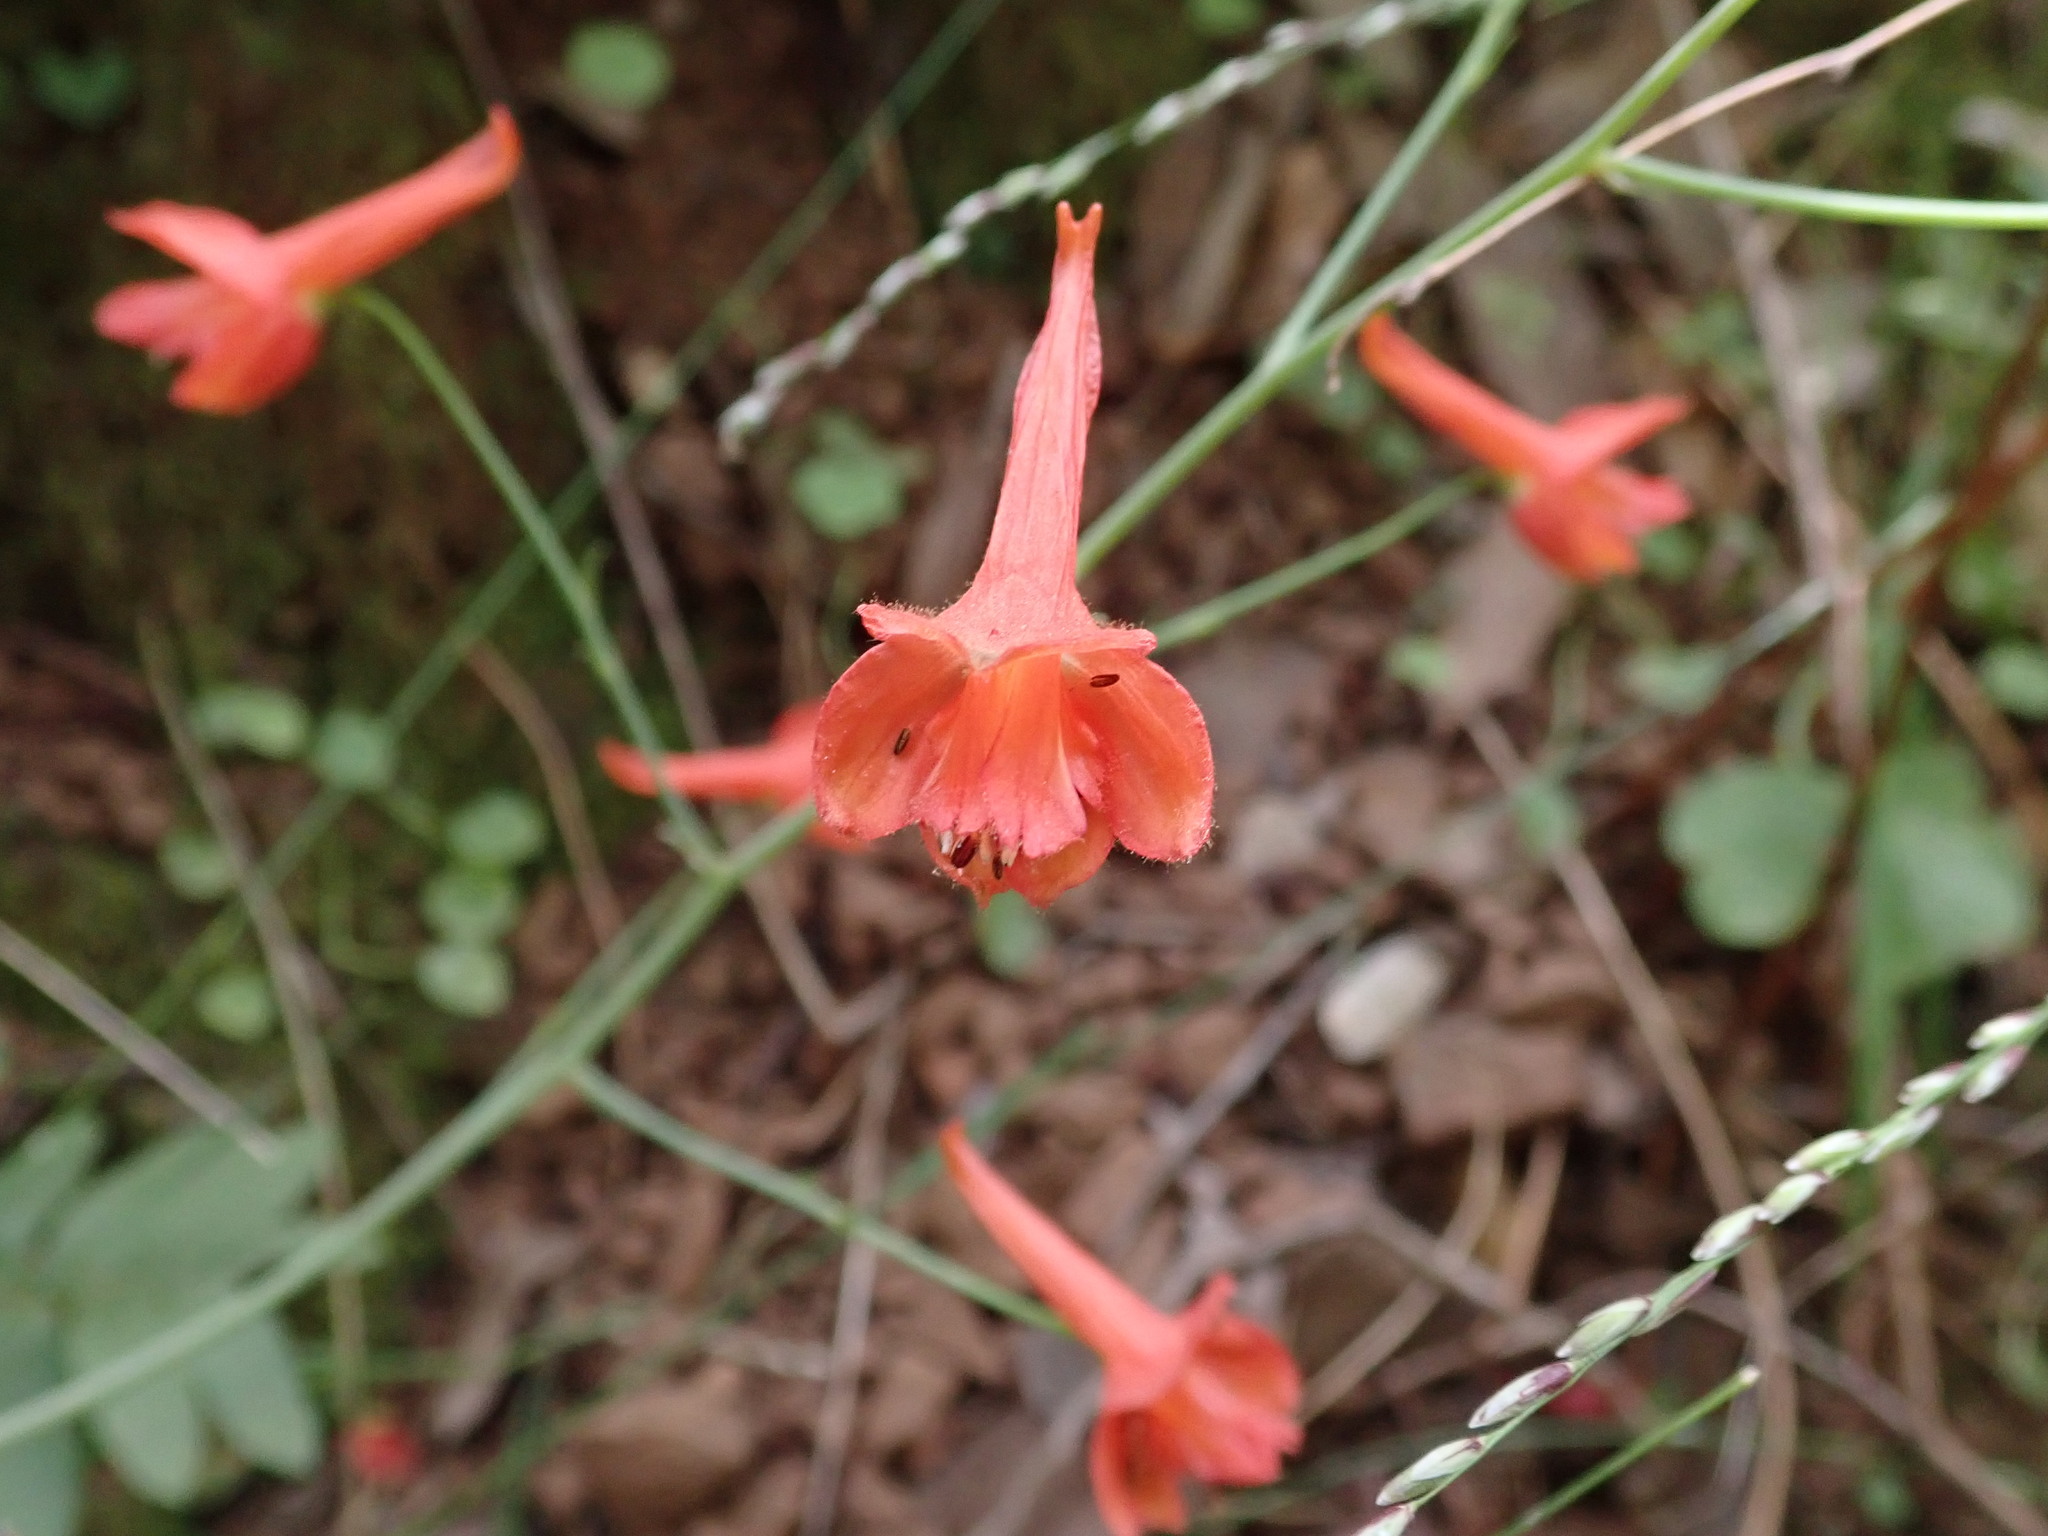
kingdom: Plantae
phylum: Tracheophyta
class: Magnoliopsida
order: Ranunculales
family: Ranunculaceae
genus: Delphinium
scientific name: Delphinium nudicaule
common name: Red larkspur
